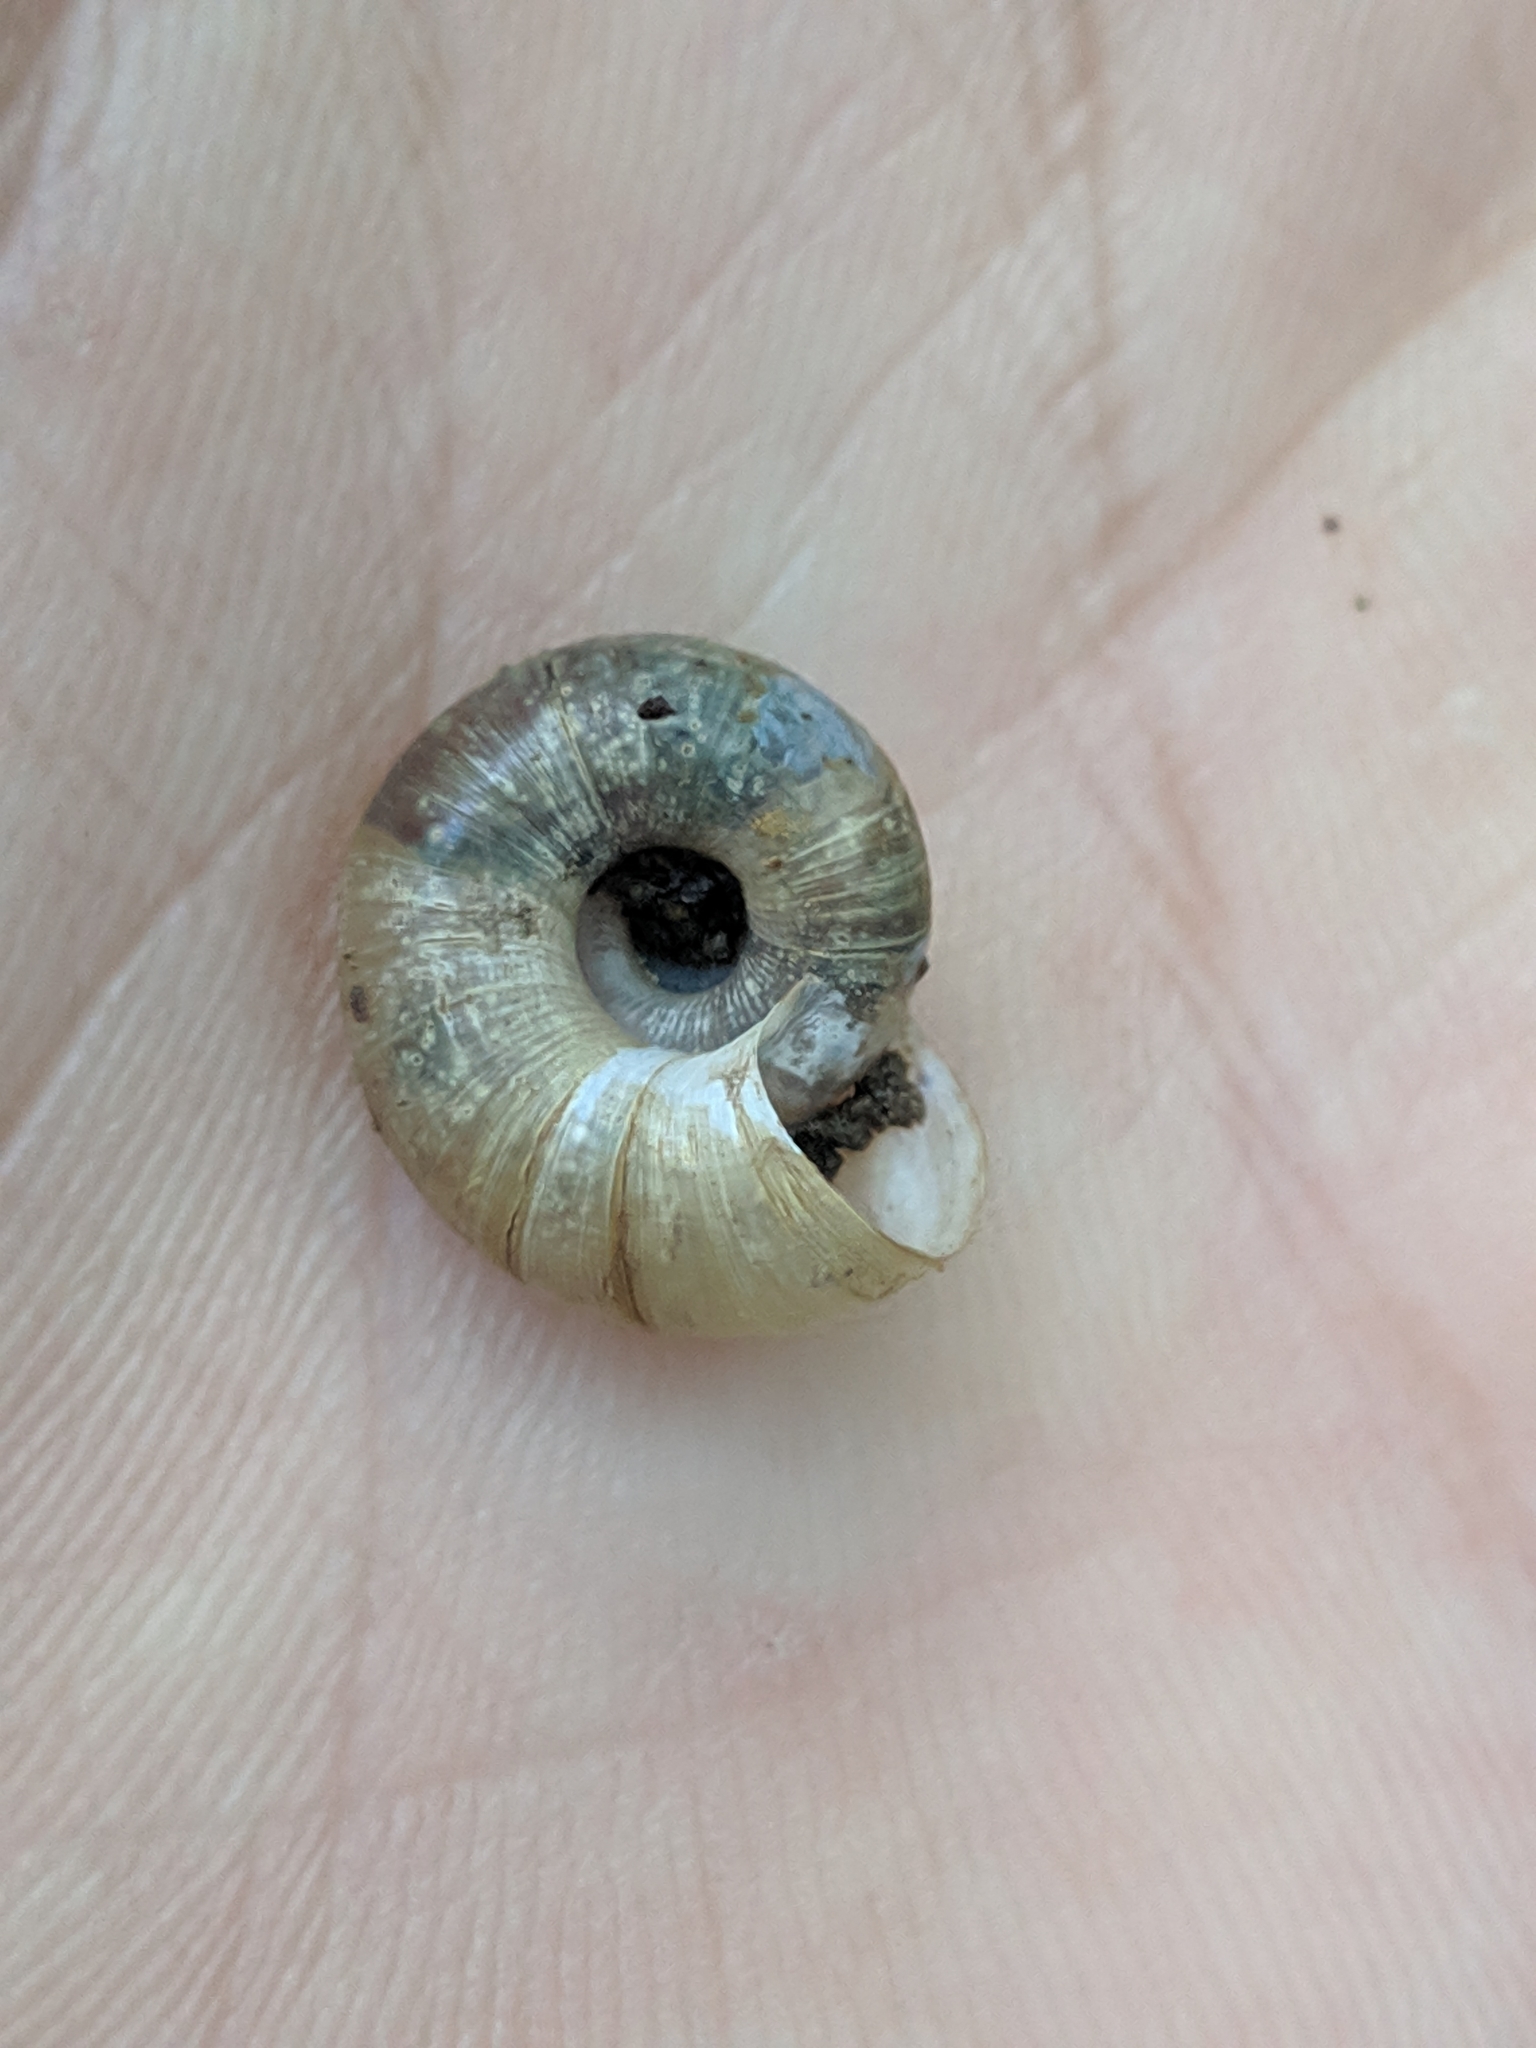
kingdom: Animalia
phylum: Mollusca
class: Gastropoda
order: Stylommatophora
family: Haplotrematidae
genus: Haplotrema
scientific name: Haplotrema concavum
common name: Gray-foot lancetooth
